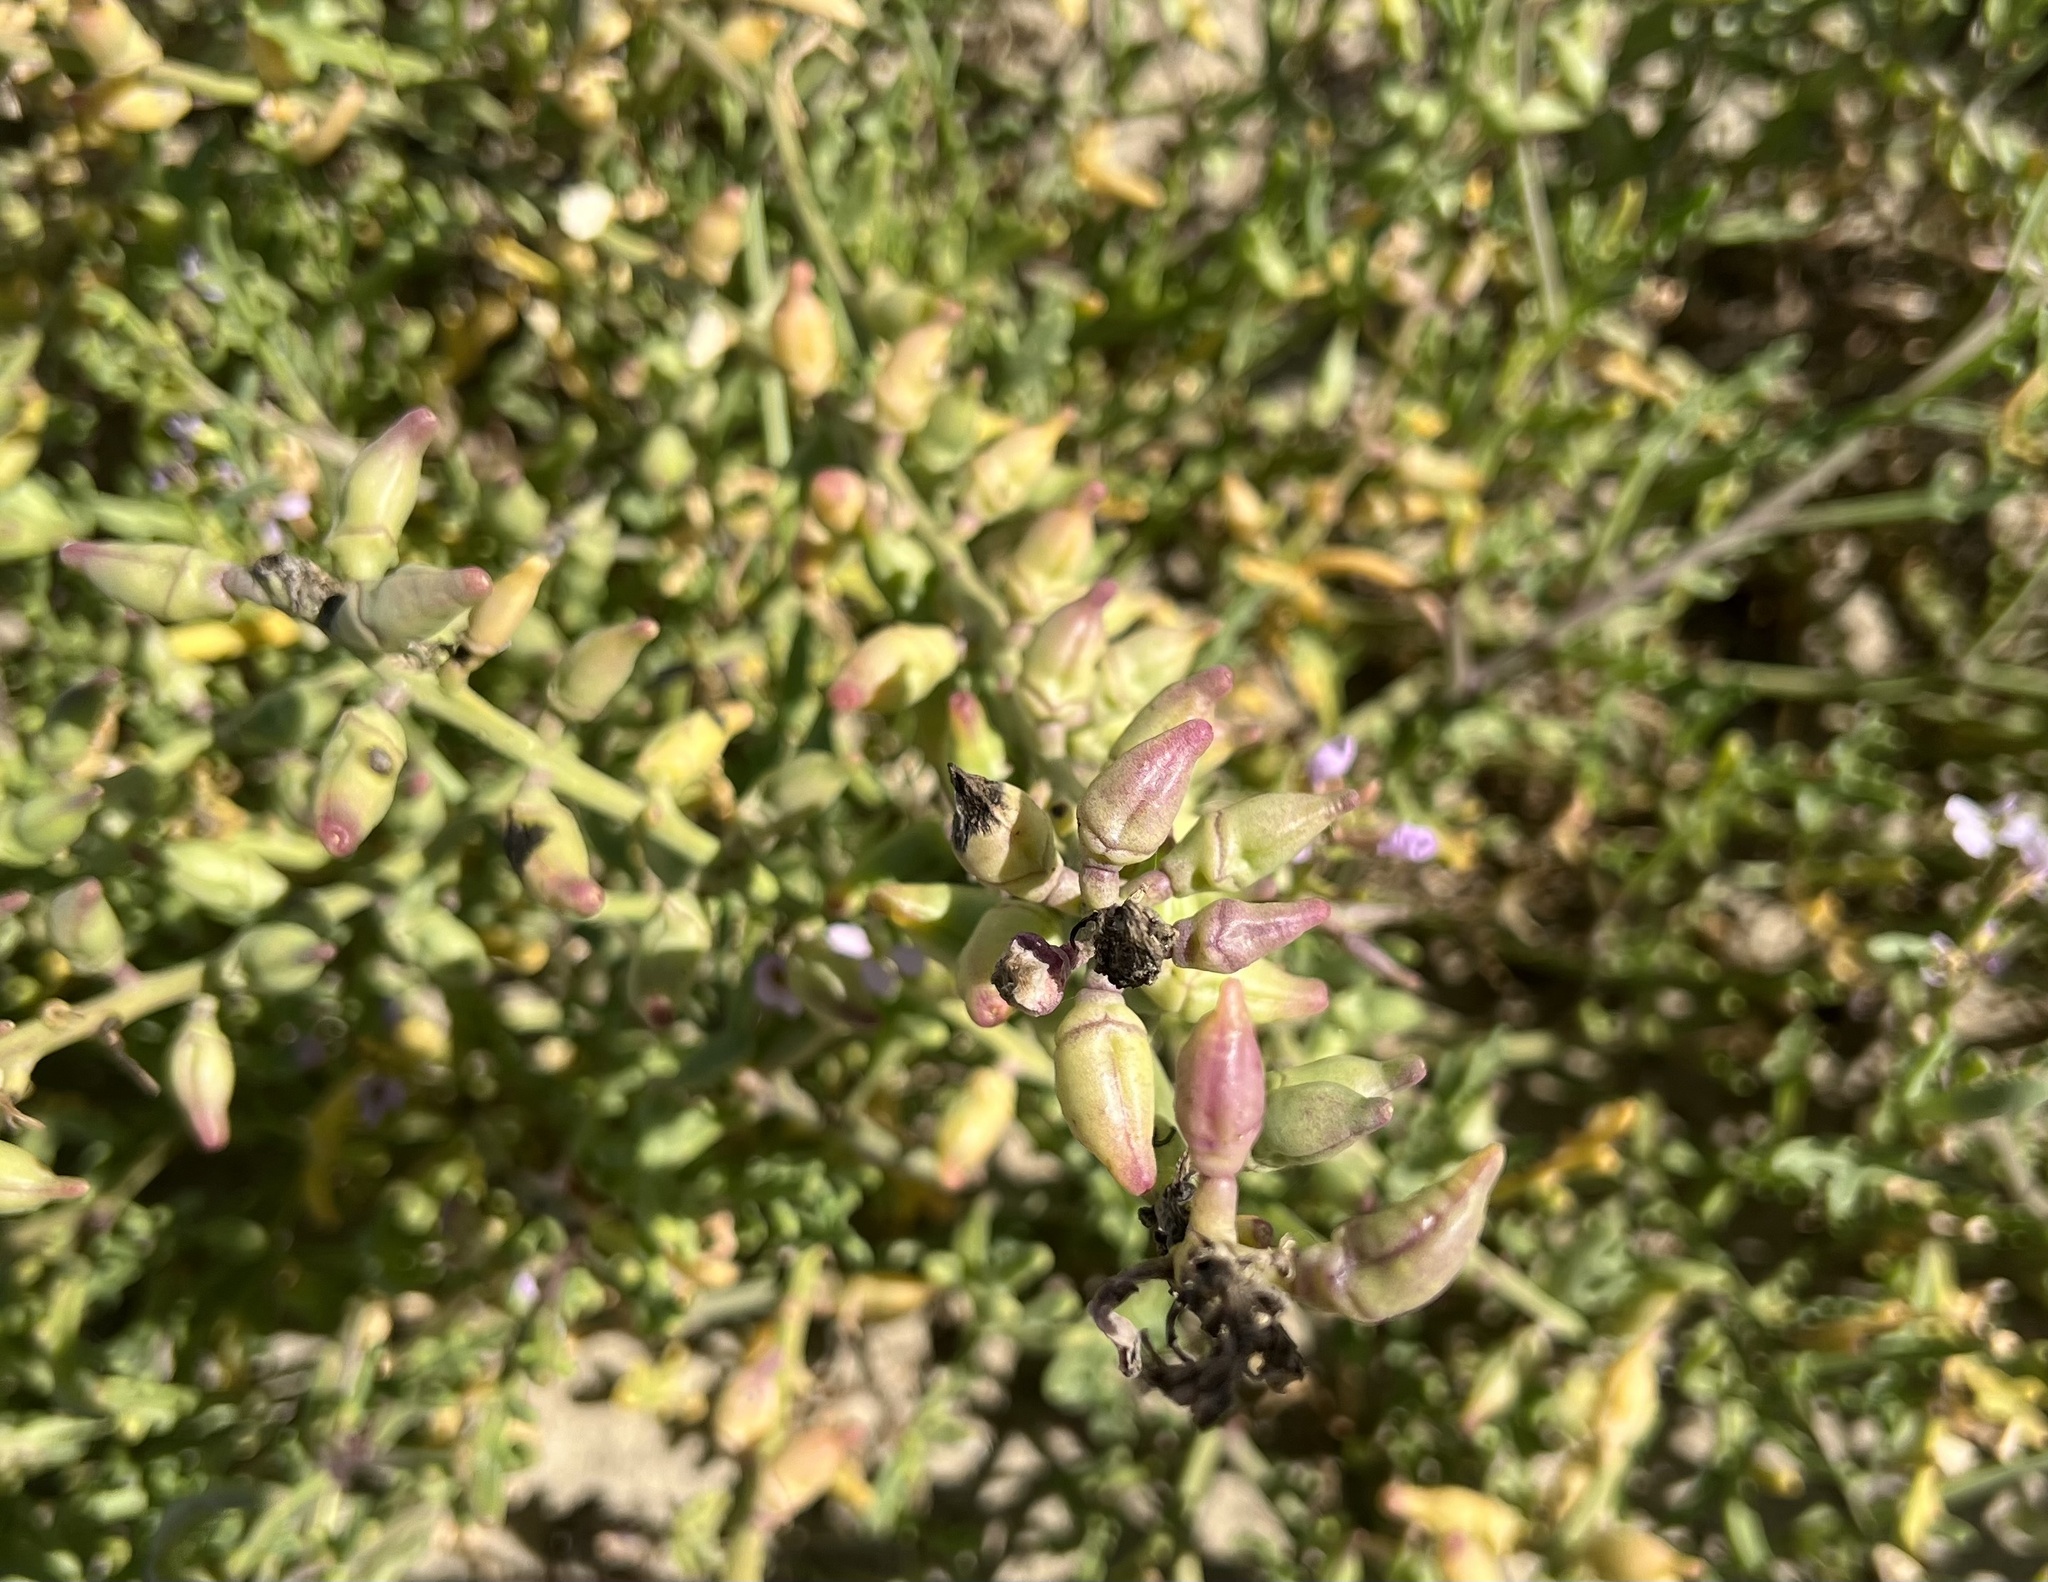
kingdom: Plantae
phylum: Tracheophyta
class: Magnoliopsida
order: Brassicales
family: Brassicaceae
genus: Cakile
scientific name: Cakile maritima
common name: Sea rocket
